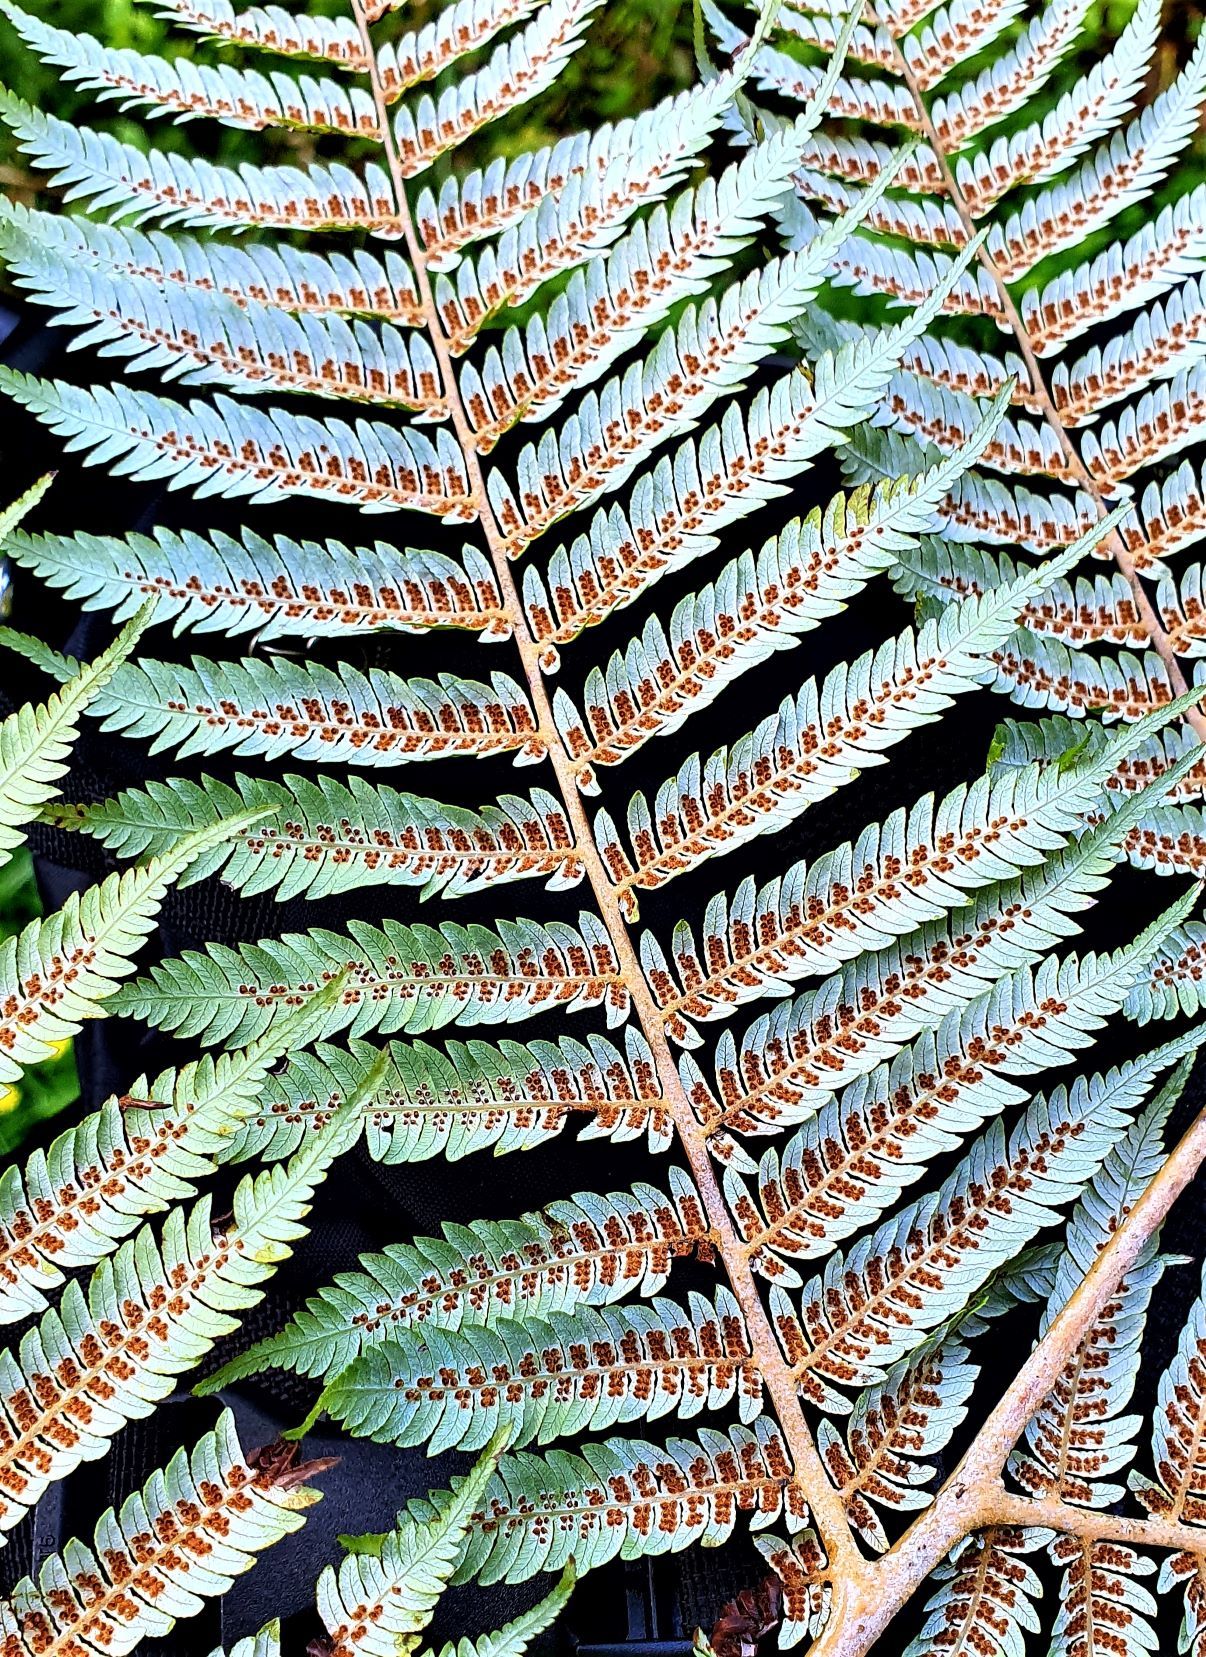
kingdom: Plantae
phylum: Tracheophyta
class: Polypodiopsida
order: Cyatheales
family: Cyatheaceae
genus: Alsophila
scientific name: Alsophila dealbata
